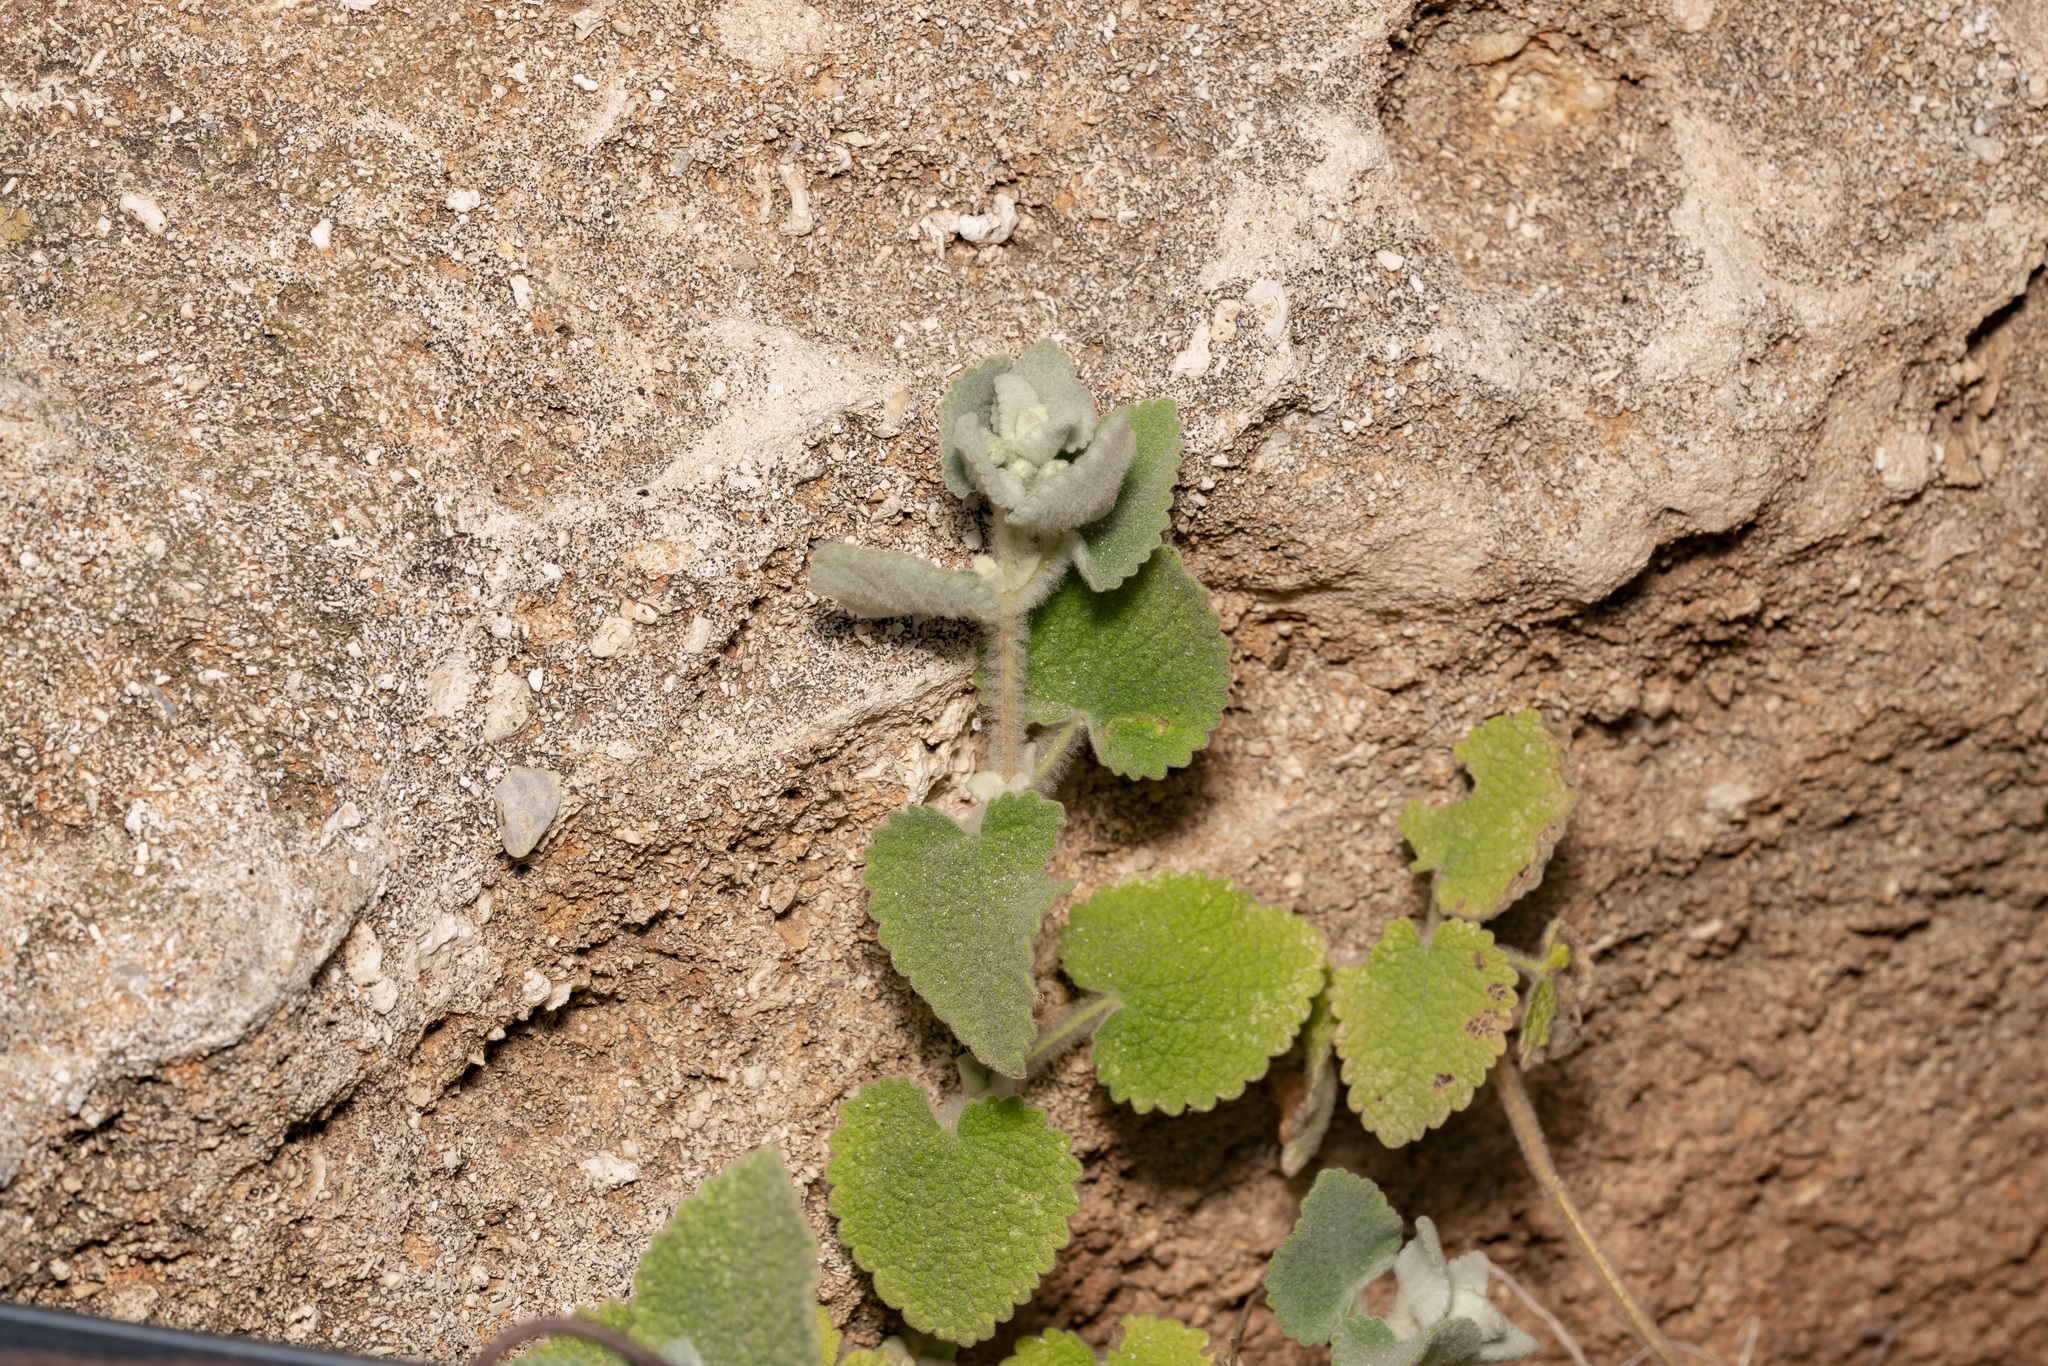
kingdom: Plantae
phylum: Tracheophyta
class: Magnoliopsida
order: Lamiales
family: Lamiaceae
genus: Pseudodictamnus
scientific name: Pseudodictamnus acetabulosus
